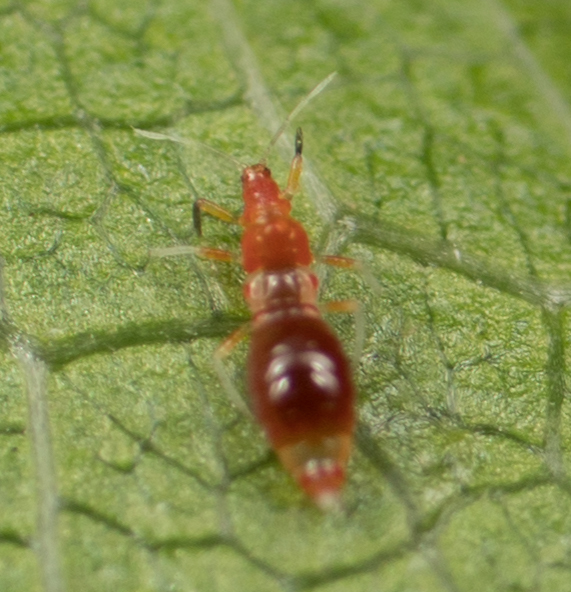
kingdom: Animalia
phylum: Arthropoda
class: Insecta
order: Thysanoptera
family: Aeolothripidae
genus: Franklinothrips
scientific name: Franklinothrips vespiformis
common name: Banded thrip
